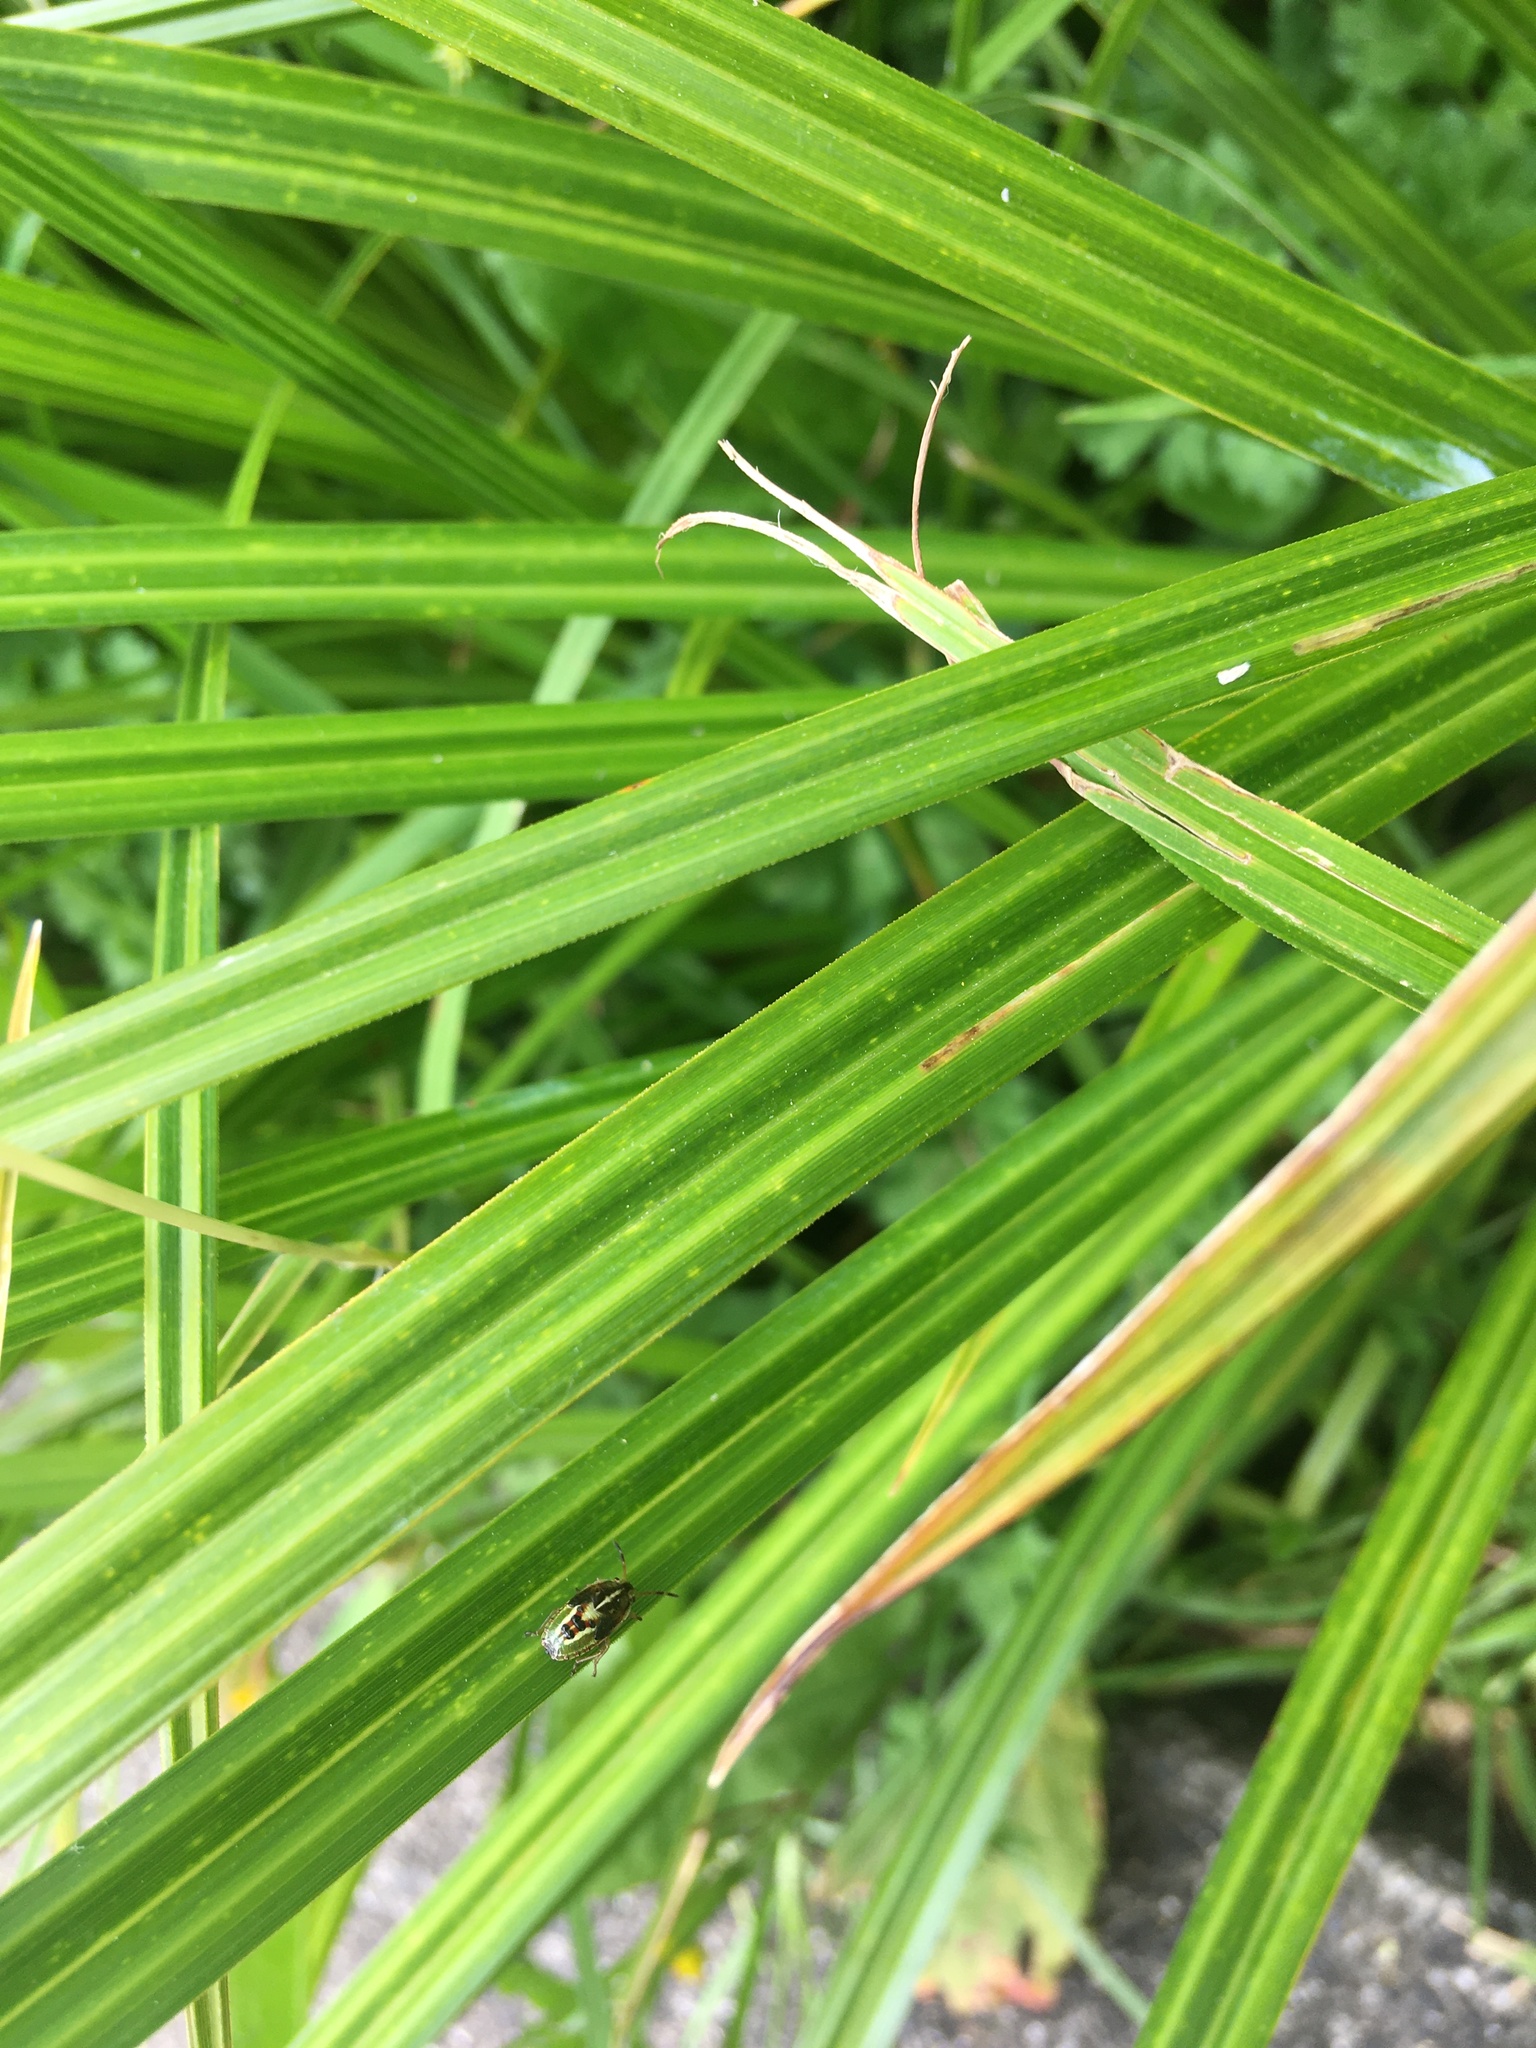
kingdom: Plantae
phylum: Tracheophyta
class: Liliopsida
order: Poales
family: Cyperaceae
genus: Carex
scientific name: Carex geminata
